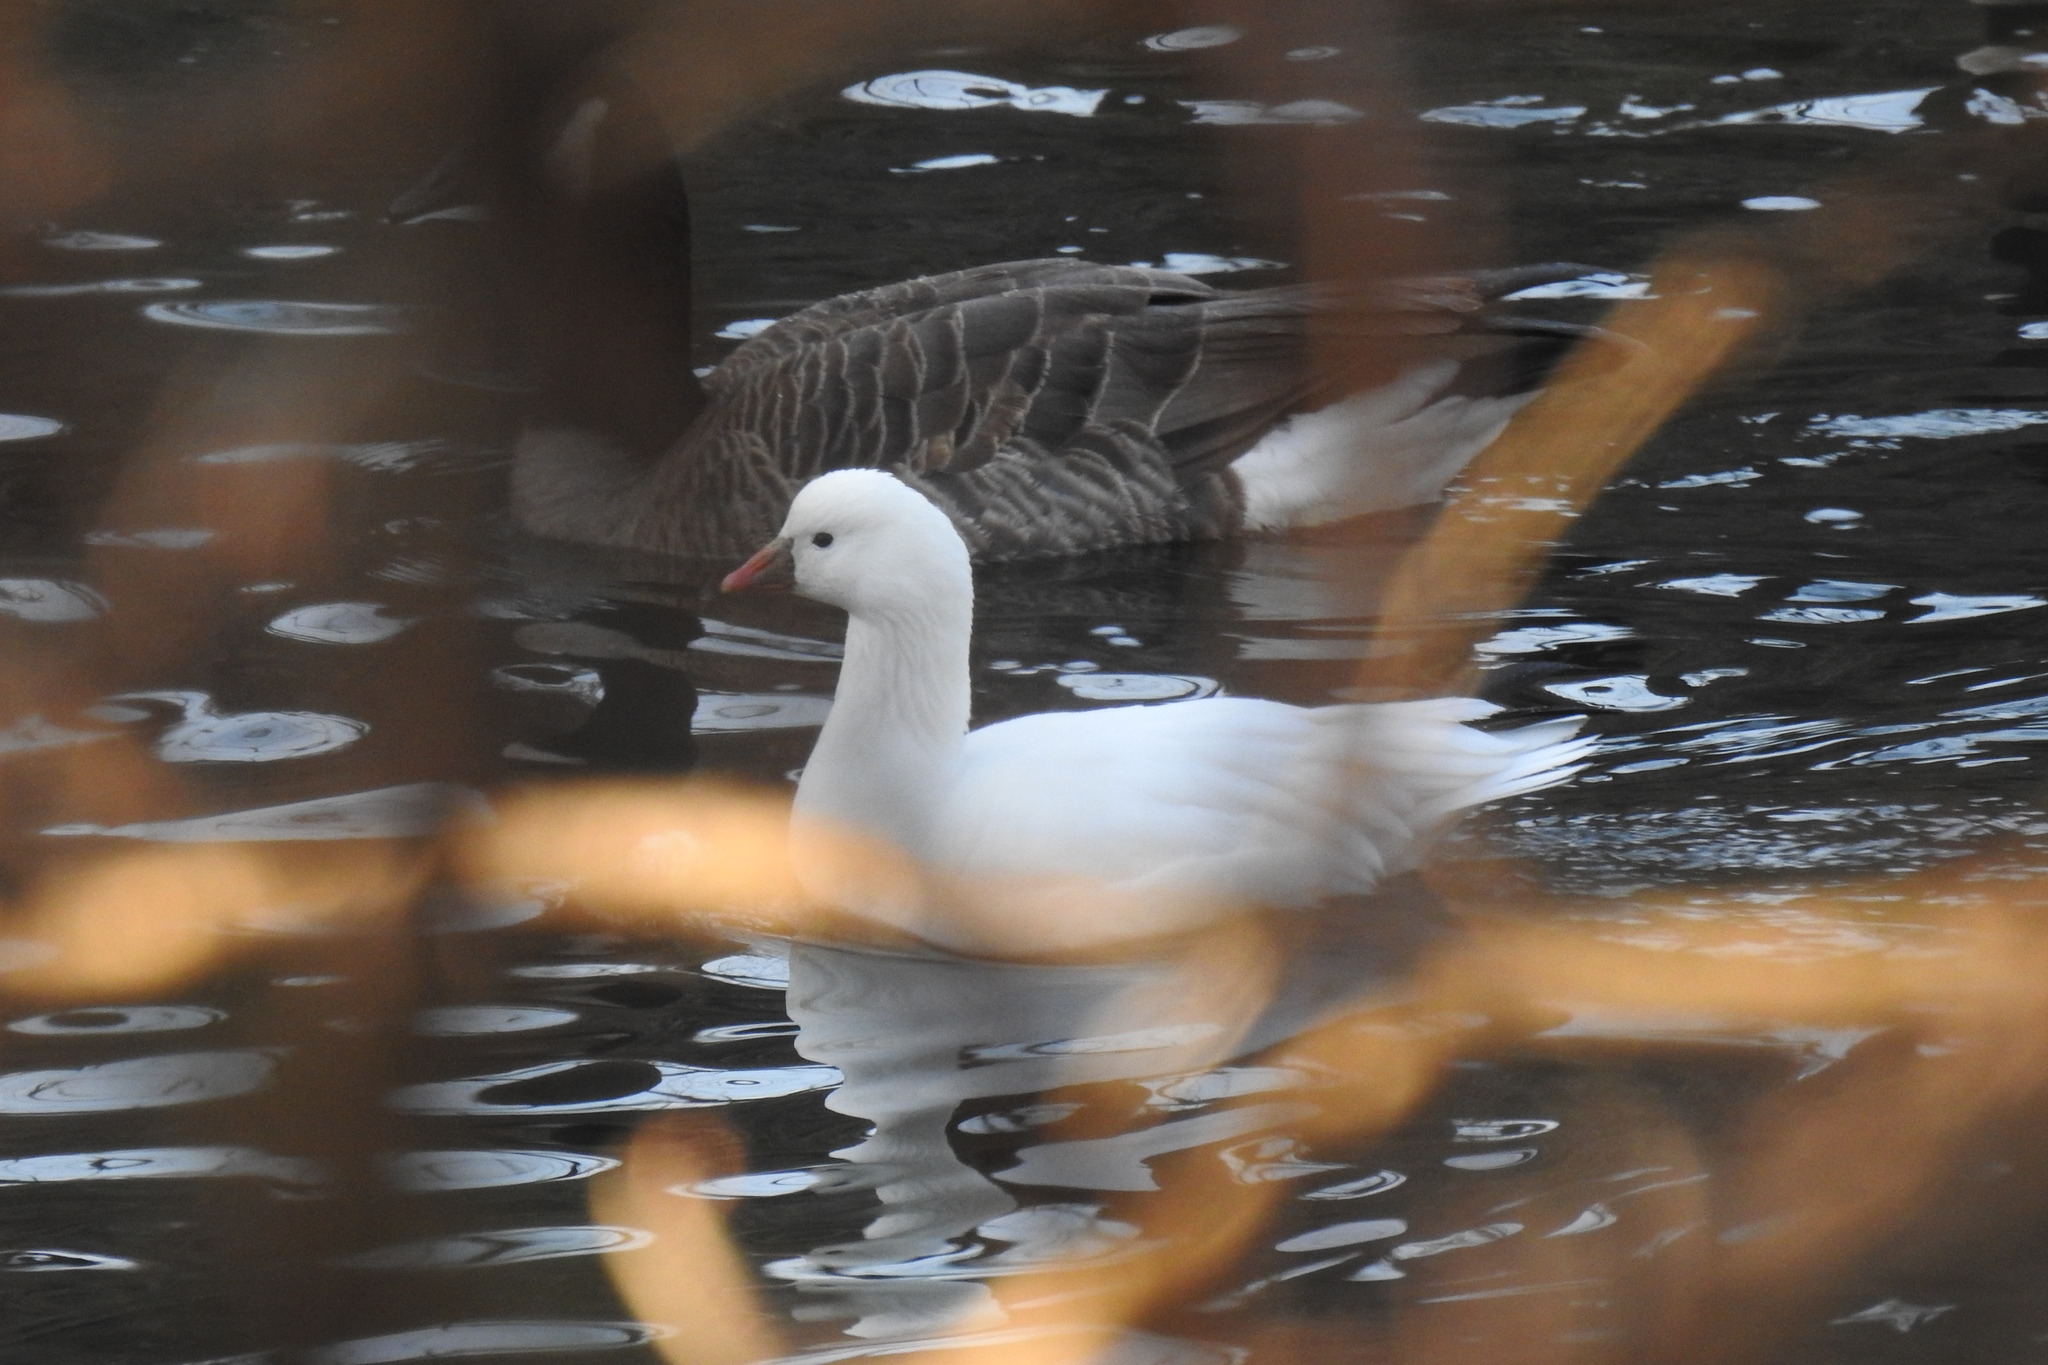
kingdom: Animalia
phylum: Chordata
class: Aves
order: Anseriformes
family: Anatidae
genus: Anser
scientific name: Anser rossii
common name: Ross's goose
